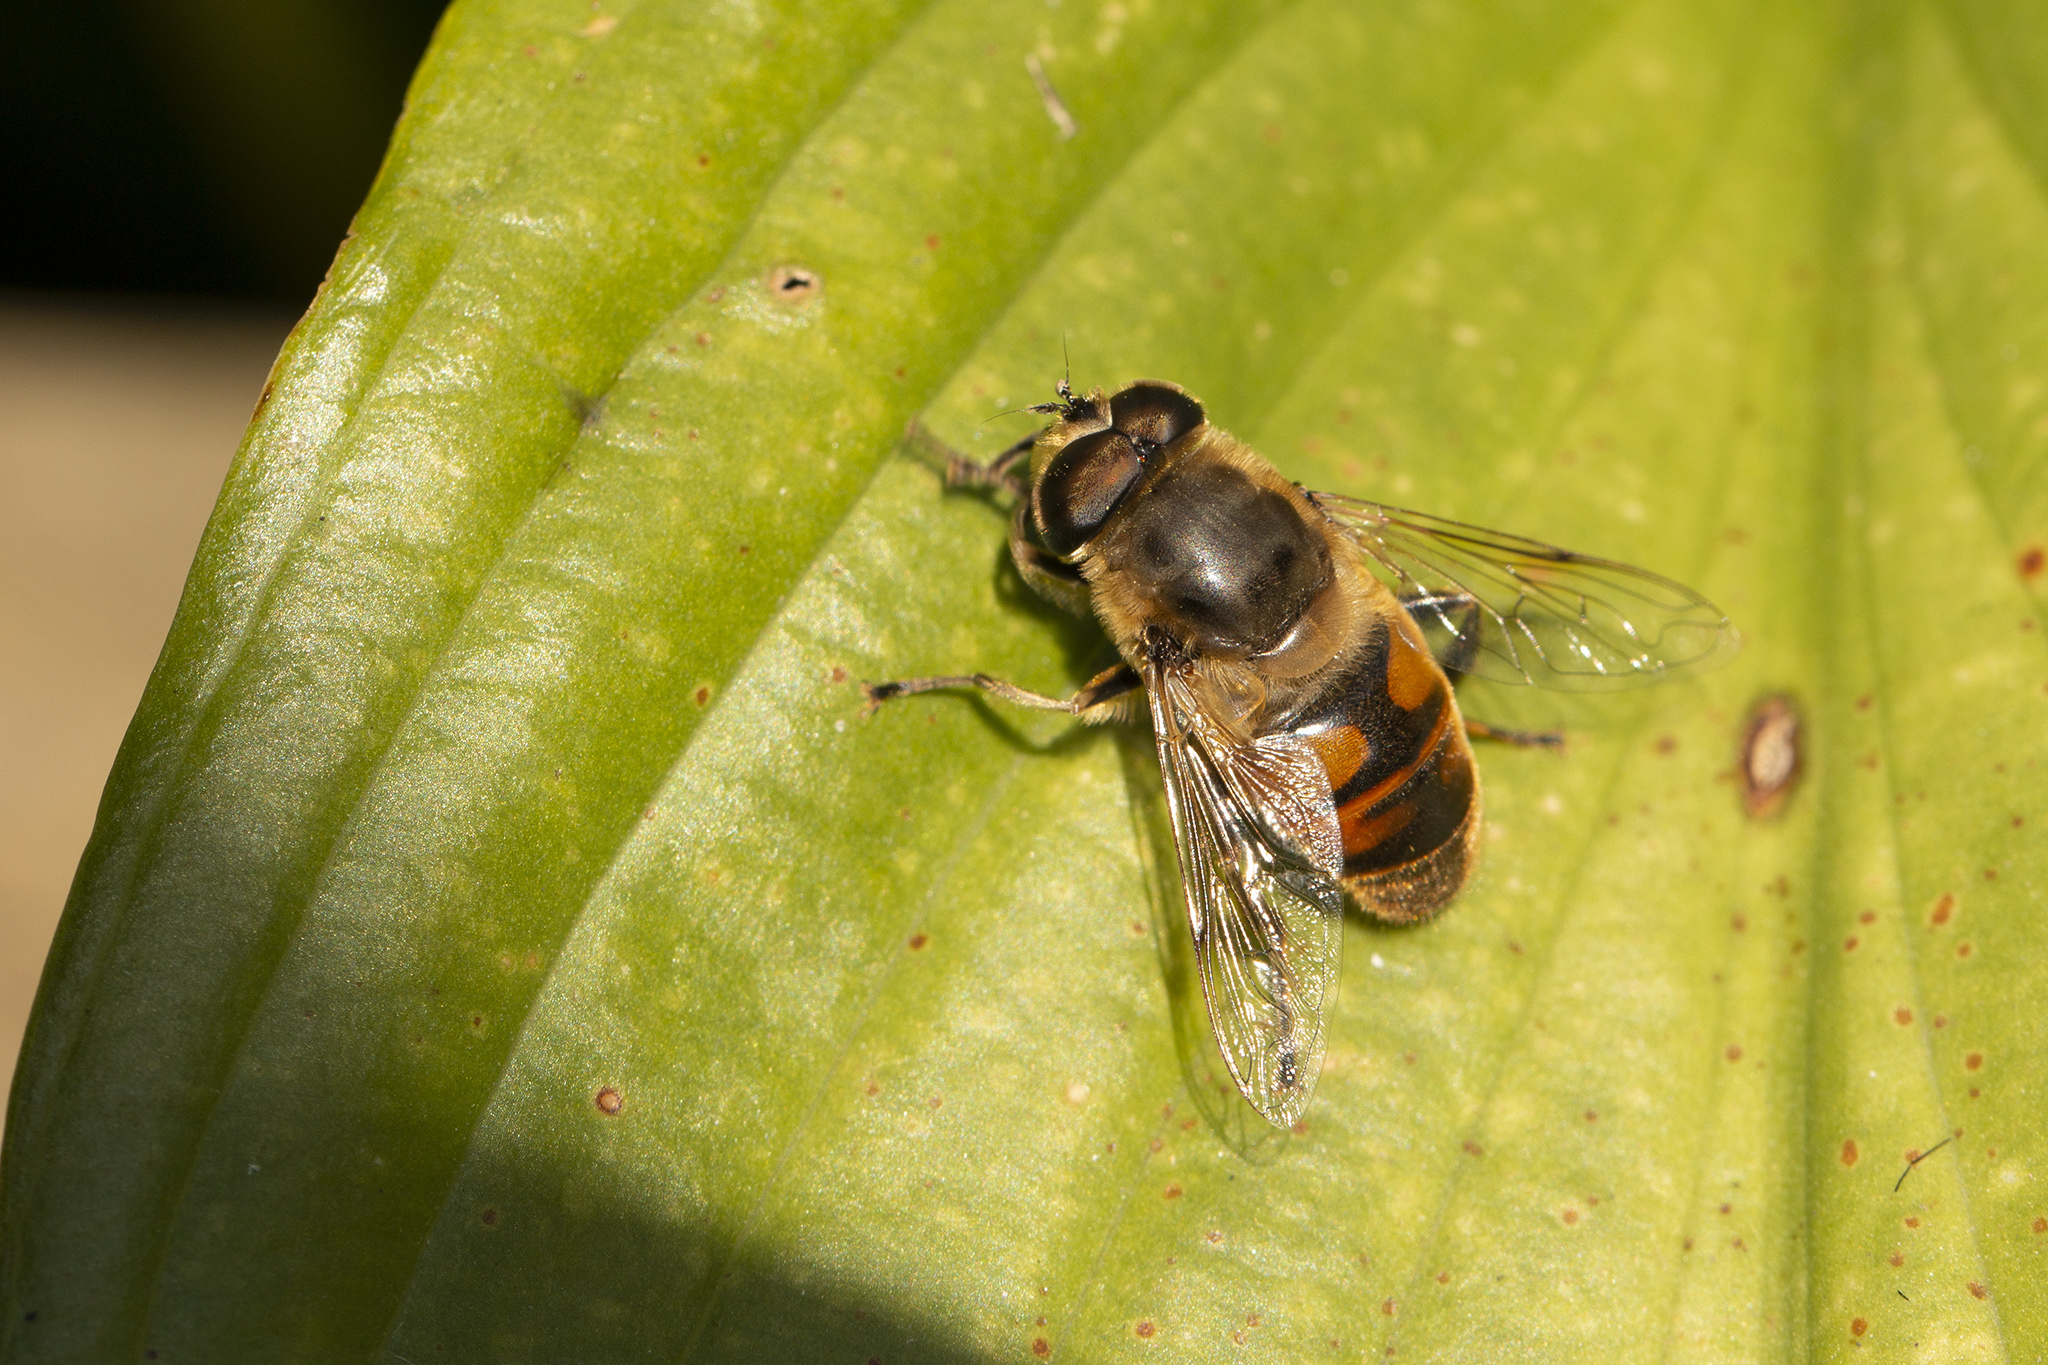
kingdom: Animalia
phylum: Arthropoda
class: Insecta
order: Diptera
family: Syrphidae
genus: Eristalis
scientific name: Eristalis tenax
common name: Drone fly
